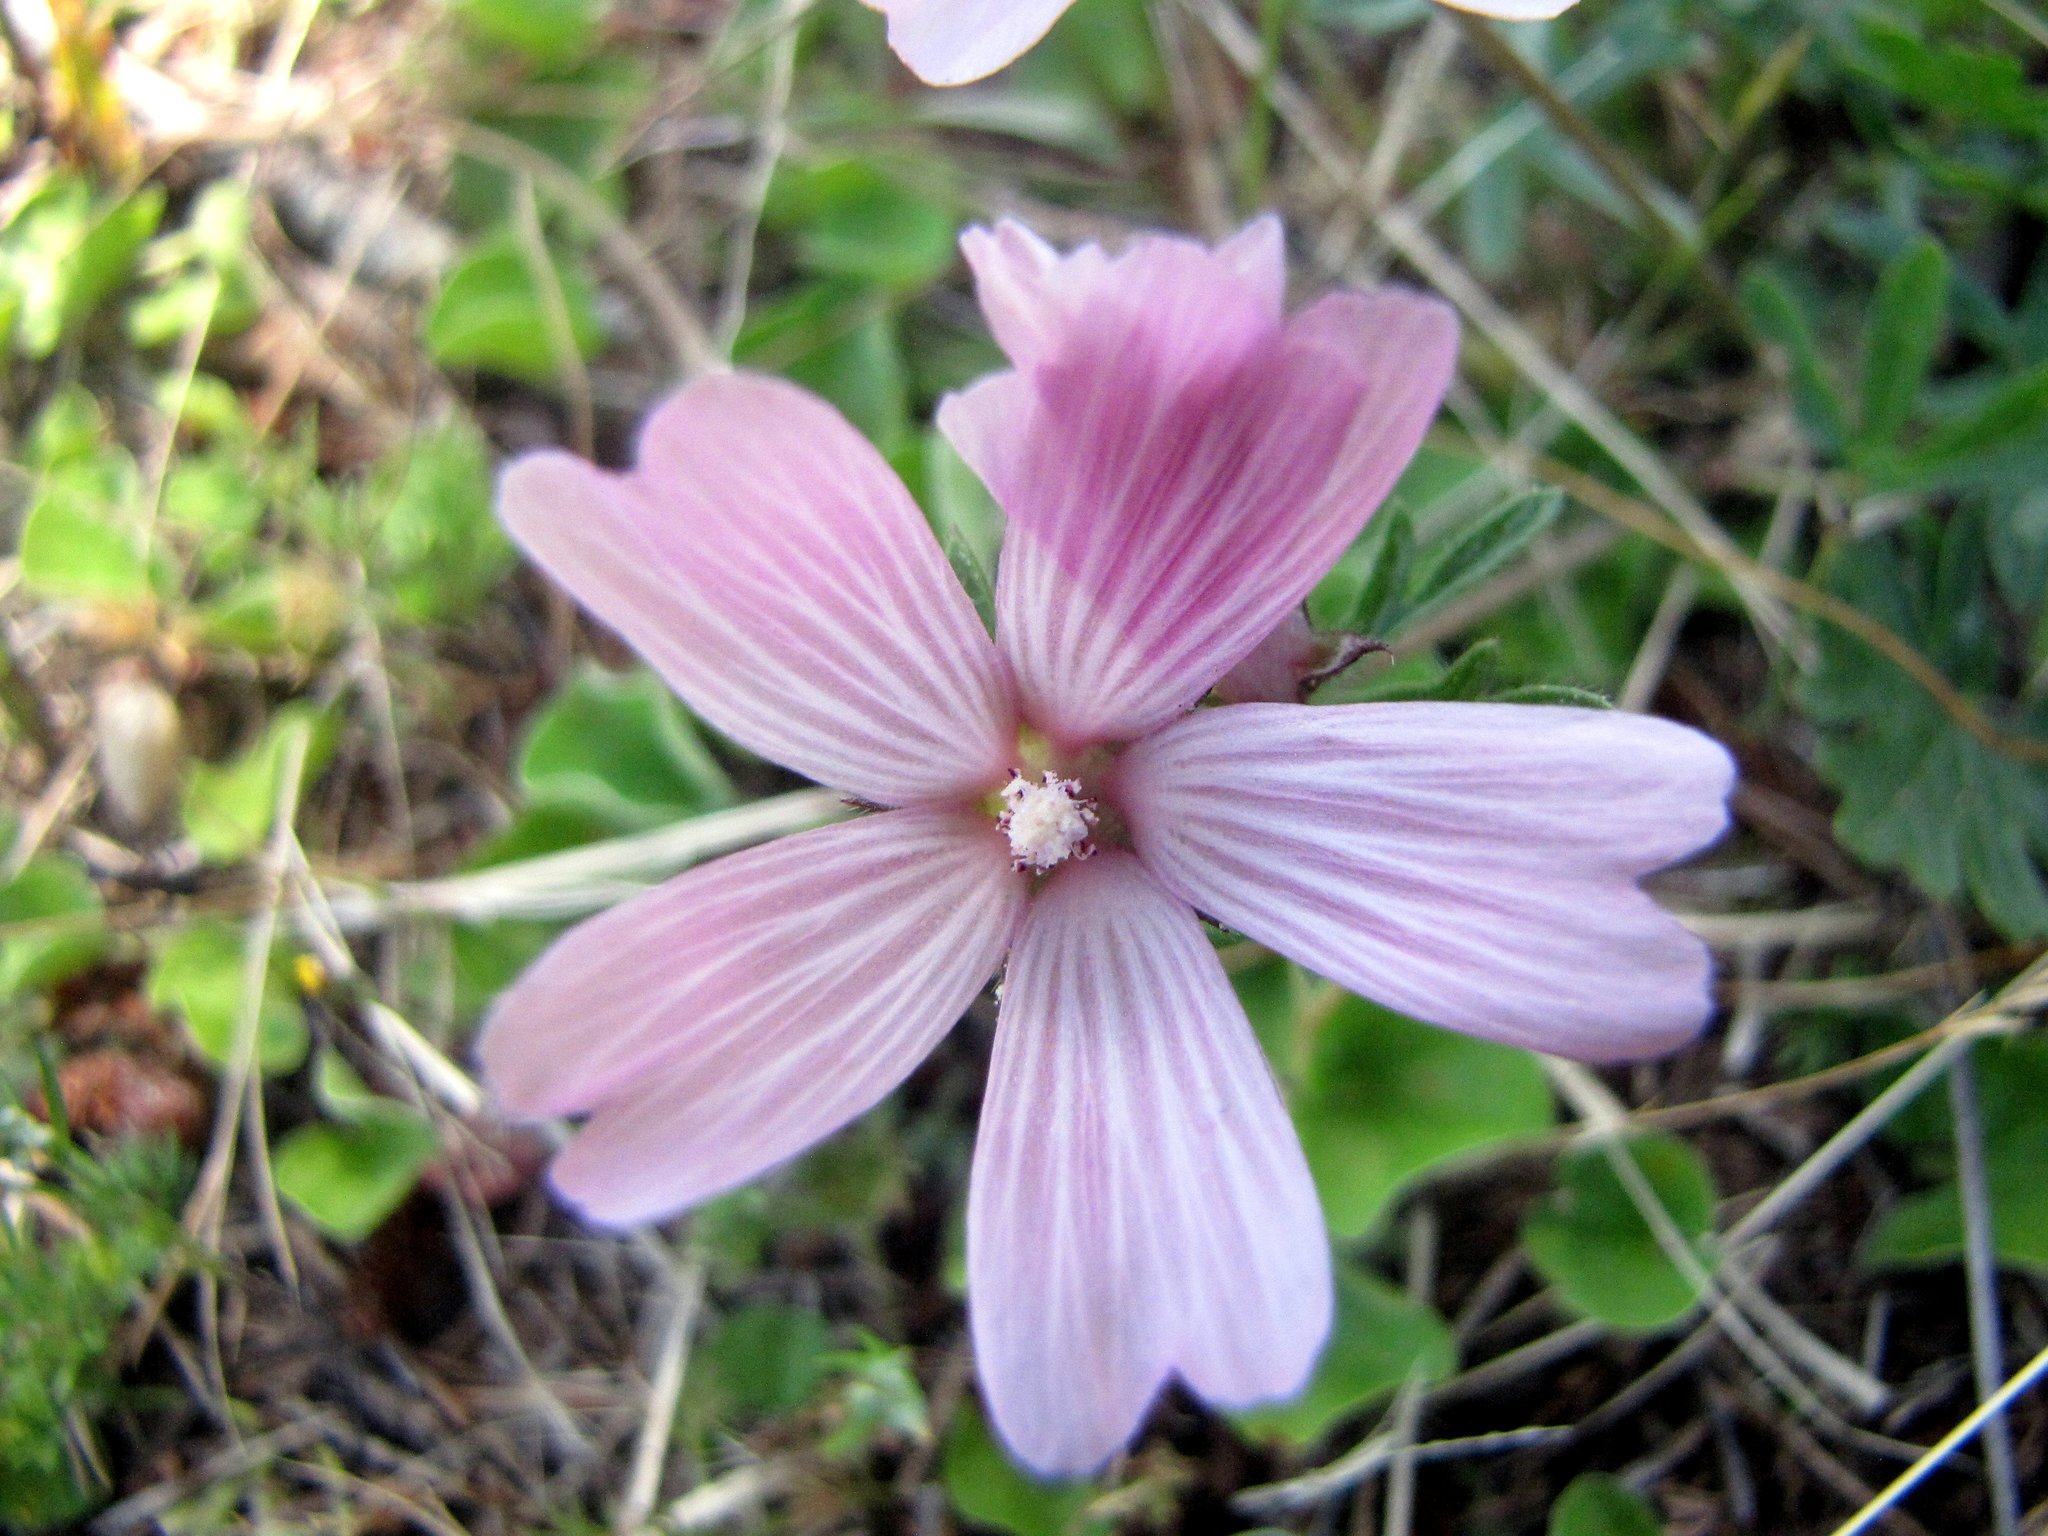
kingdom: Plantae
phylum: Tracheophyta
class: Magnoliopsida
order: Malvales
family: Malvaceae
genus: Sidalcea
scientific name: Sidalcea malviflora
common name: Greek mallow
